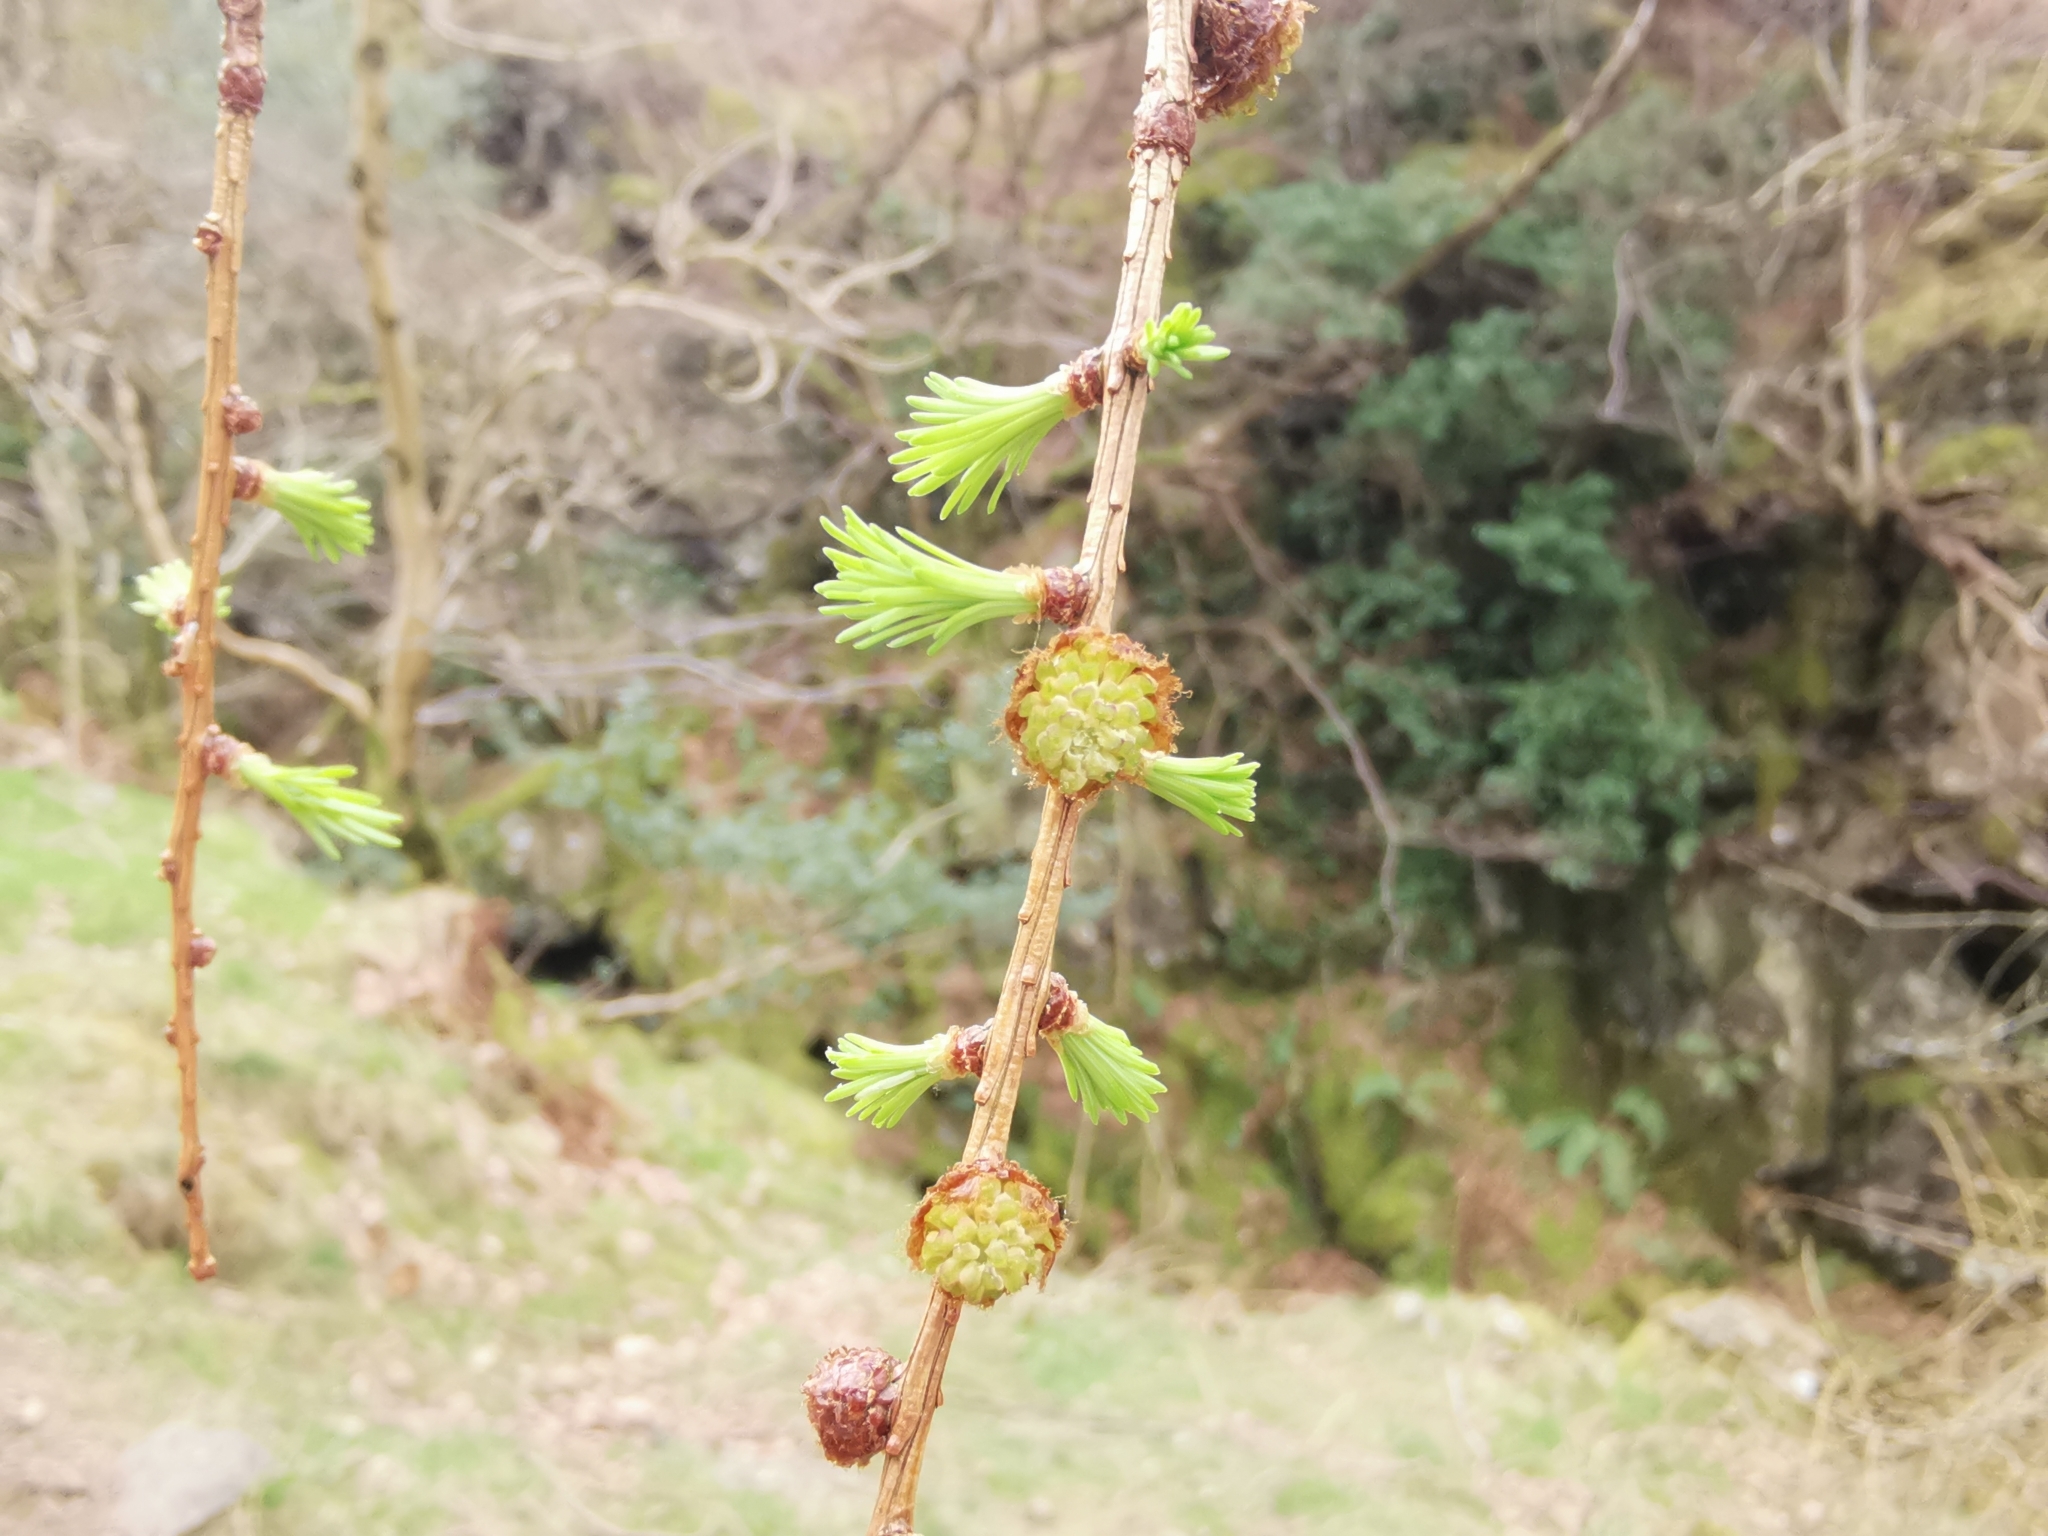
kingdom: Plantae
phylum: Tracheophyta
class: Pinopsida
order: Pinales
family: Pinaceae
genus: Larix
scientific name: Larix decidua
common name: European larch
